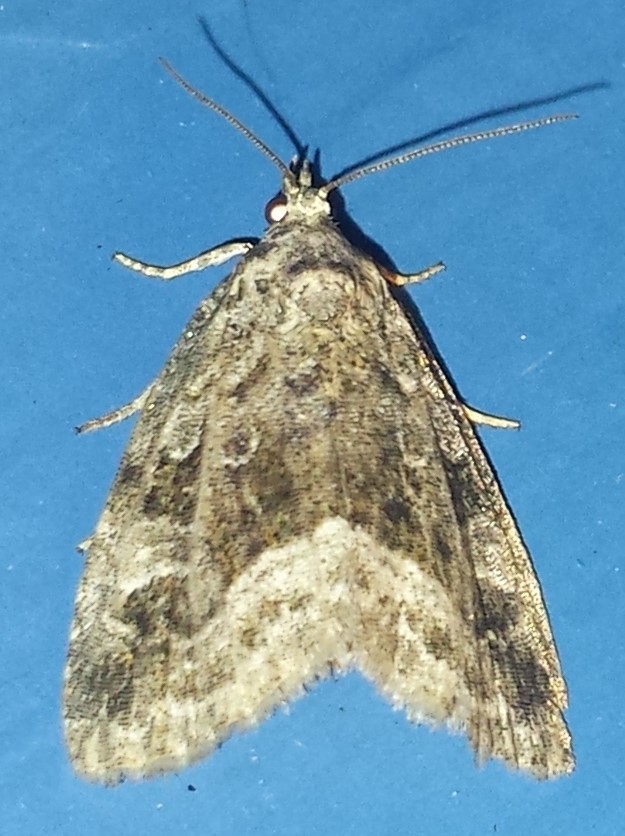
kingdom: Animalia
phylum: Arthropoda
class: Insecta
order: Lepidoptera
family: Noctuidae
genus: Protodeltote
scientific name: Protodeltote muscosula
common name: Large mossy glyph
